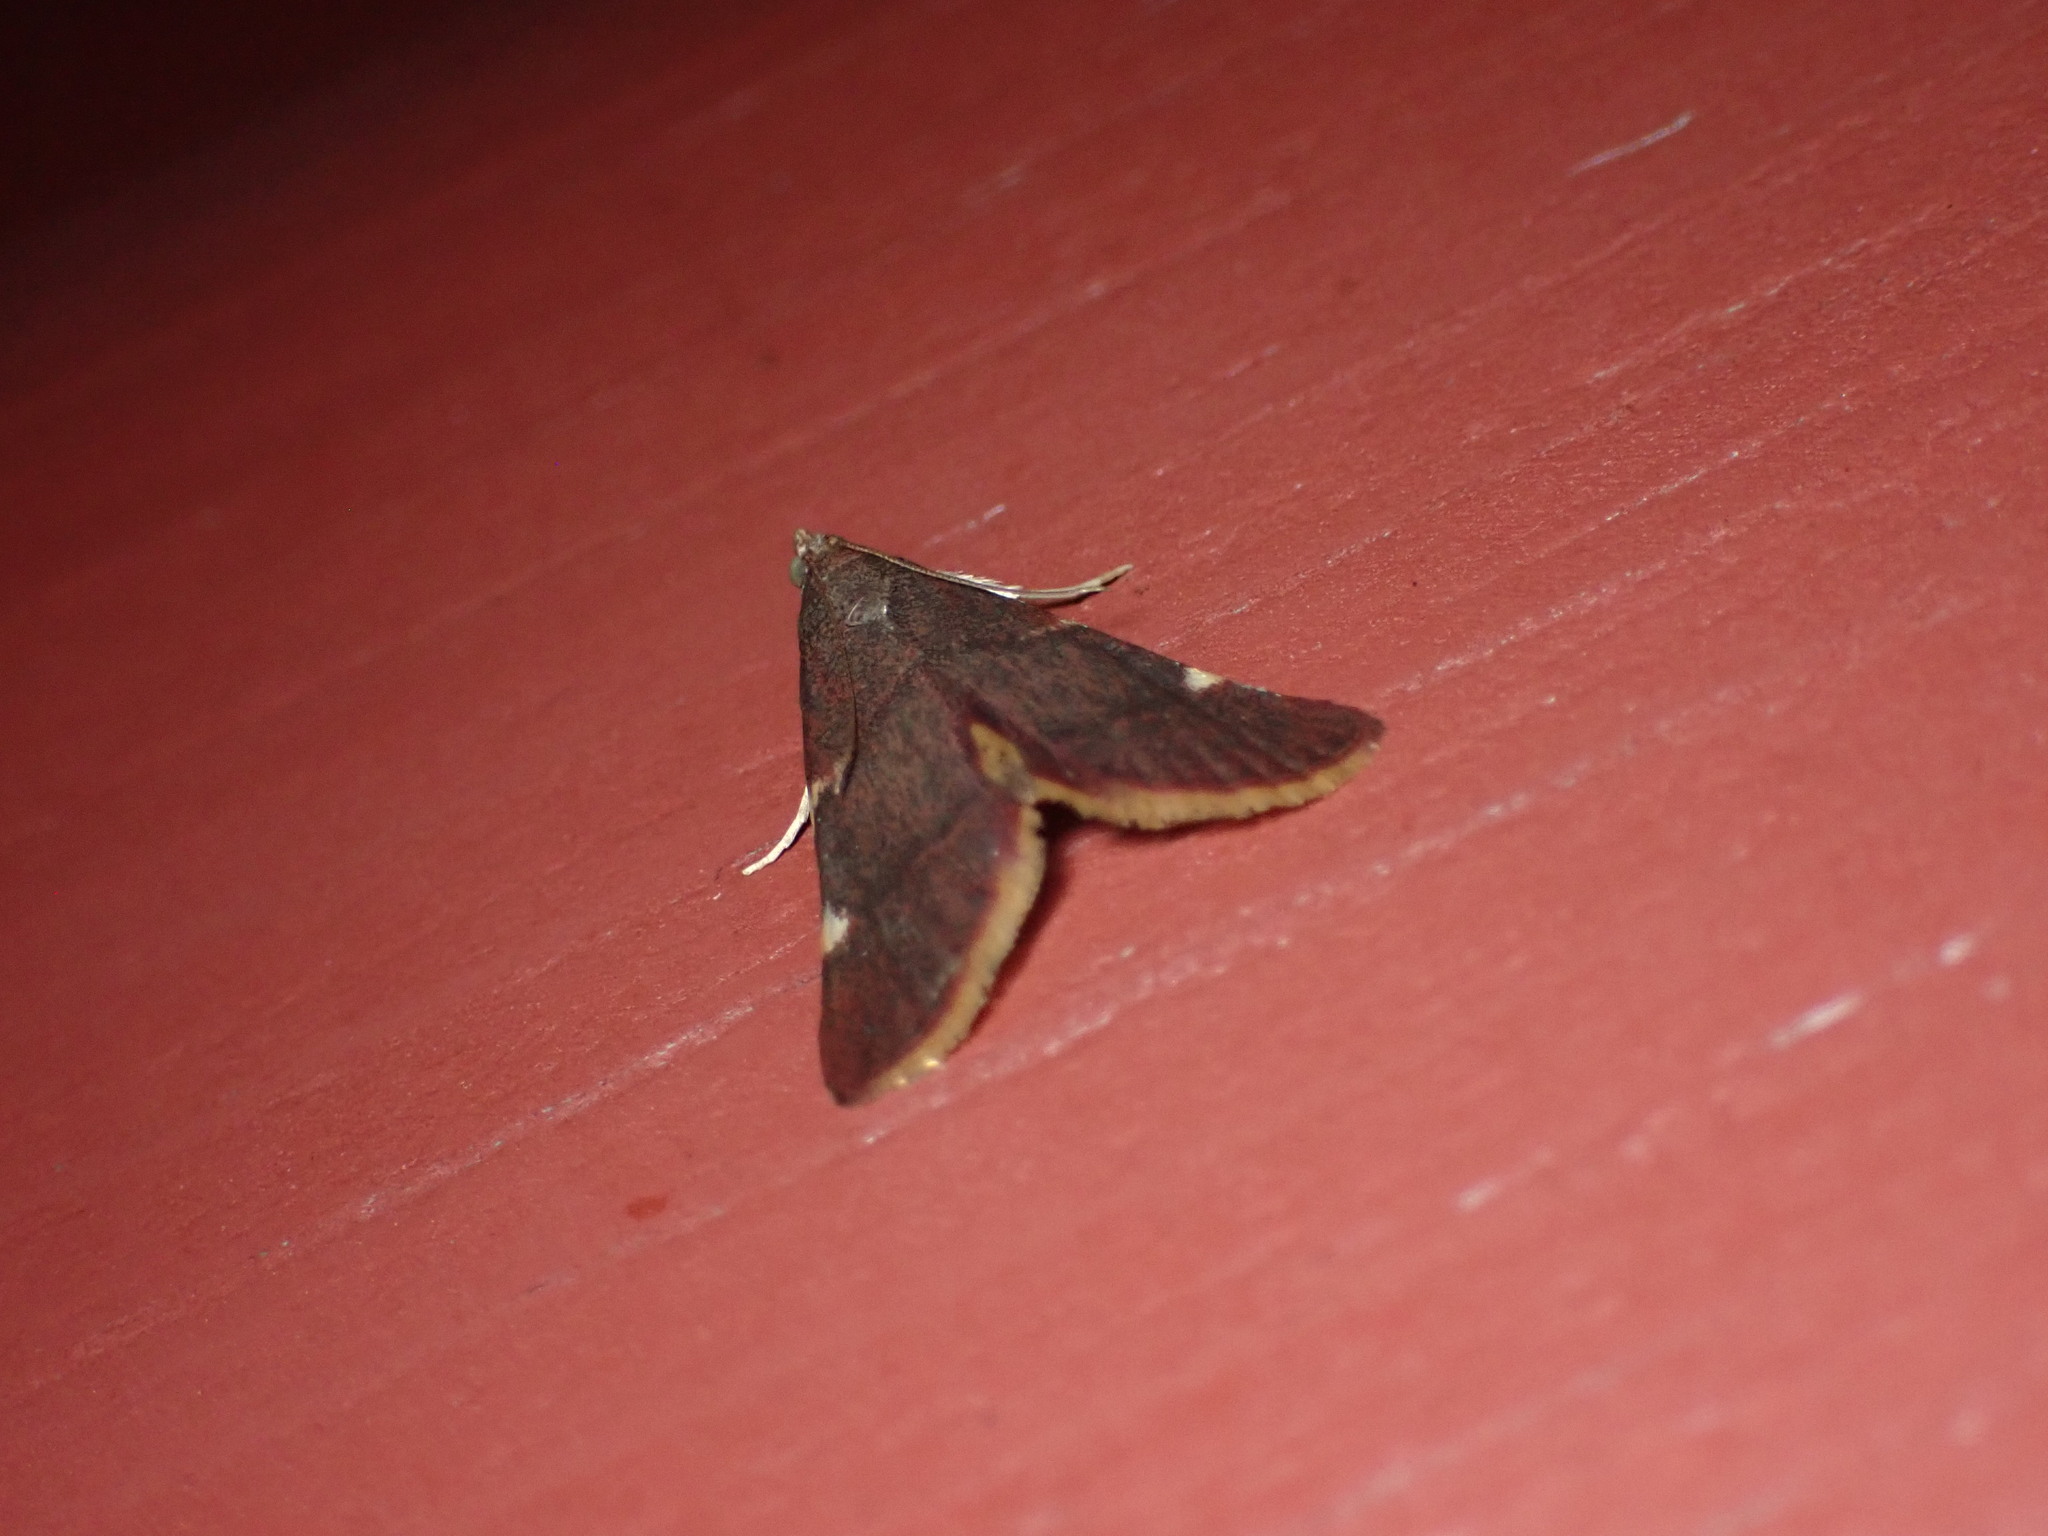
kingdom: Animalia
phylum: Arthropoda
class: Insecta
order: Lepidoptera
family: Pyralidae
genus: Hypsopygia
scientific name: Hypsopygia olinalis
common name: Yellow-fringed dolichomia moth
